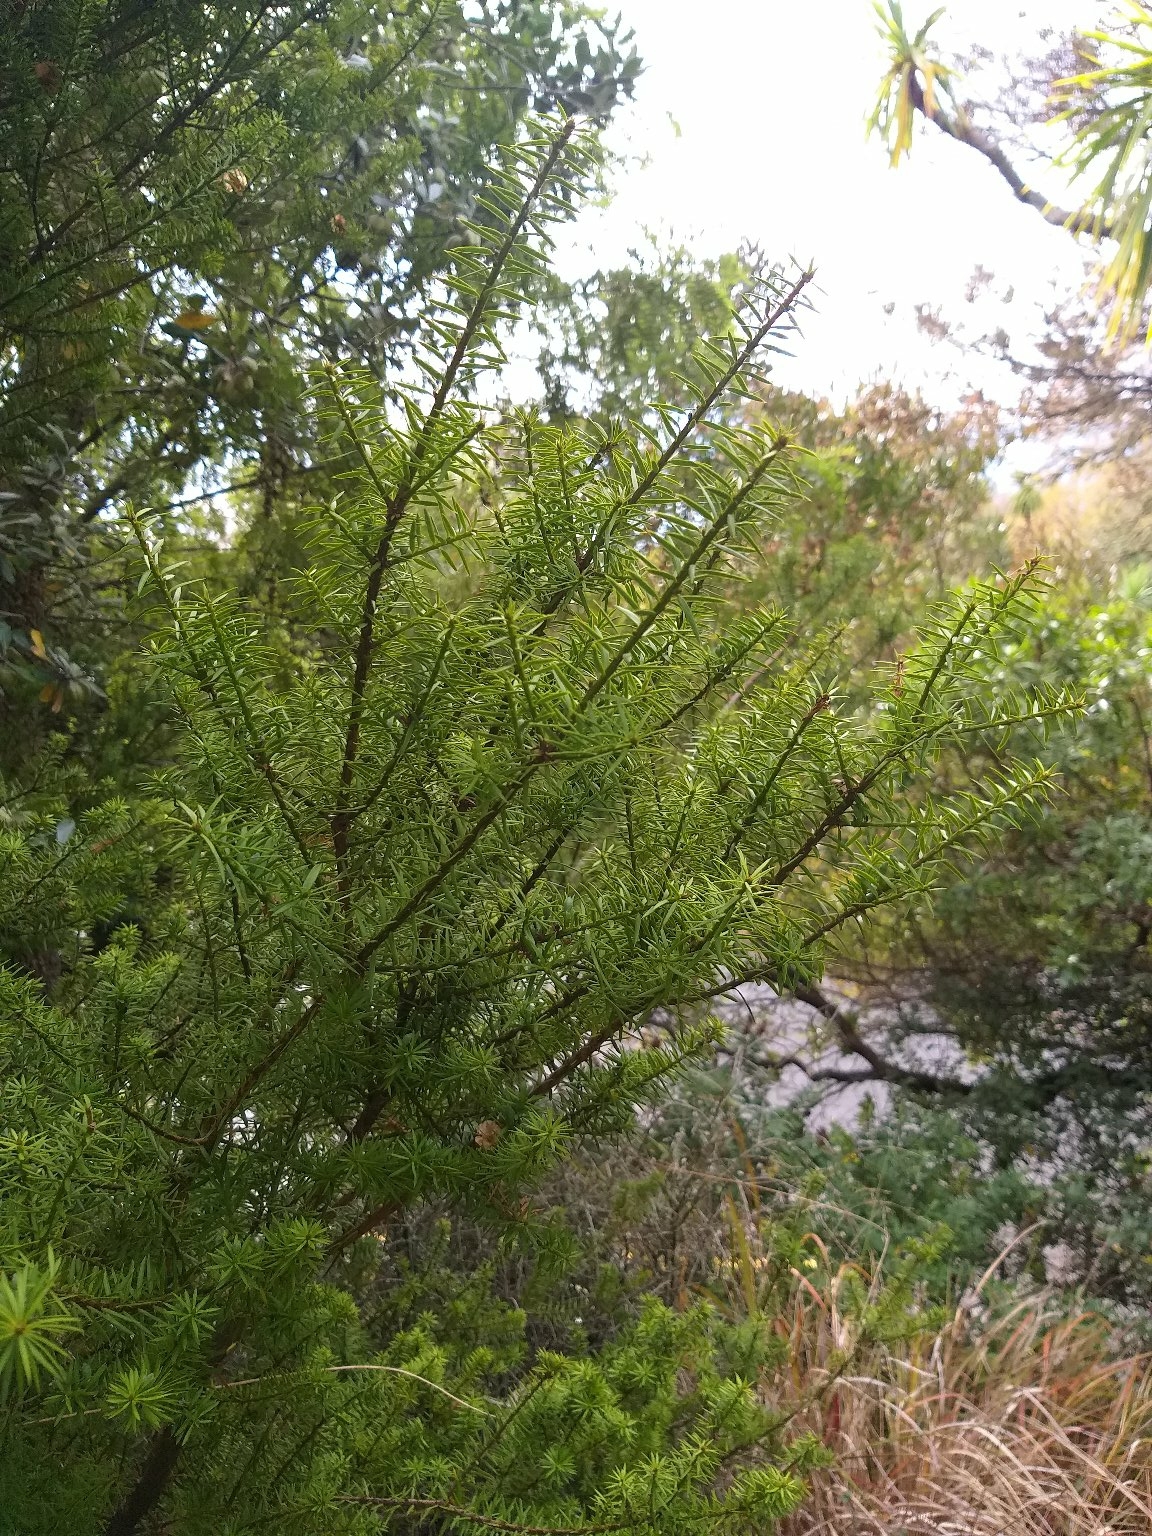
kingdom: Plantae
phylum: Tracheophyta
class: Pinopsida
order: Pinales
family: Podocarpaceae
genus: Podocarpus
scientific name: Podocarpus totara
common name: Totara
